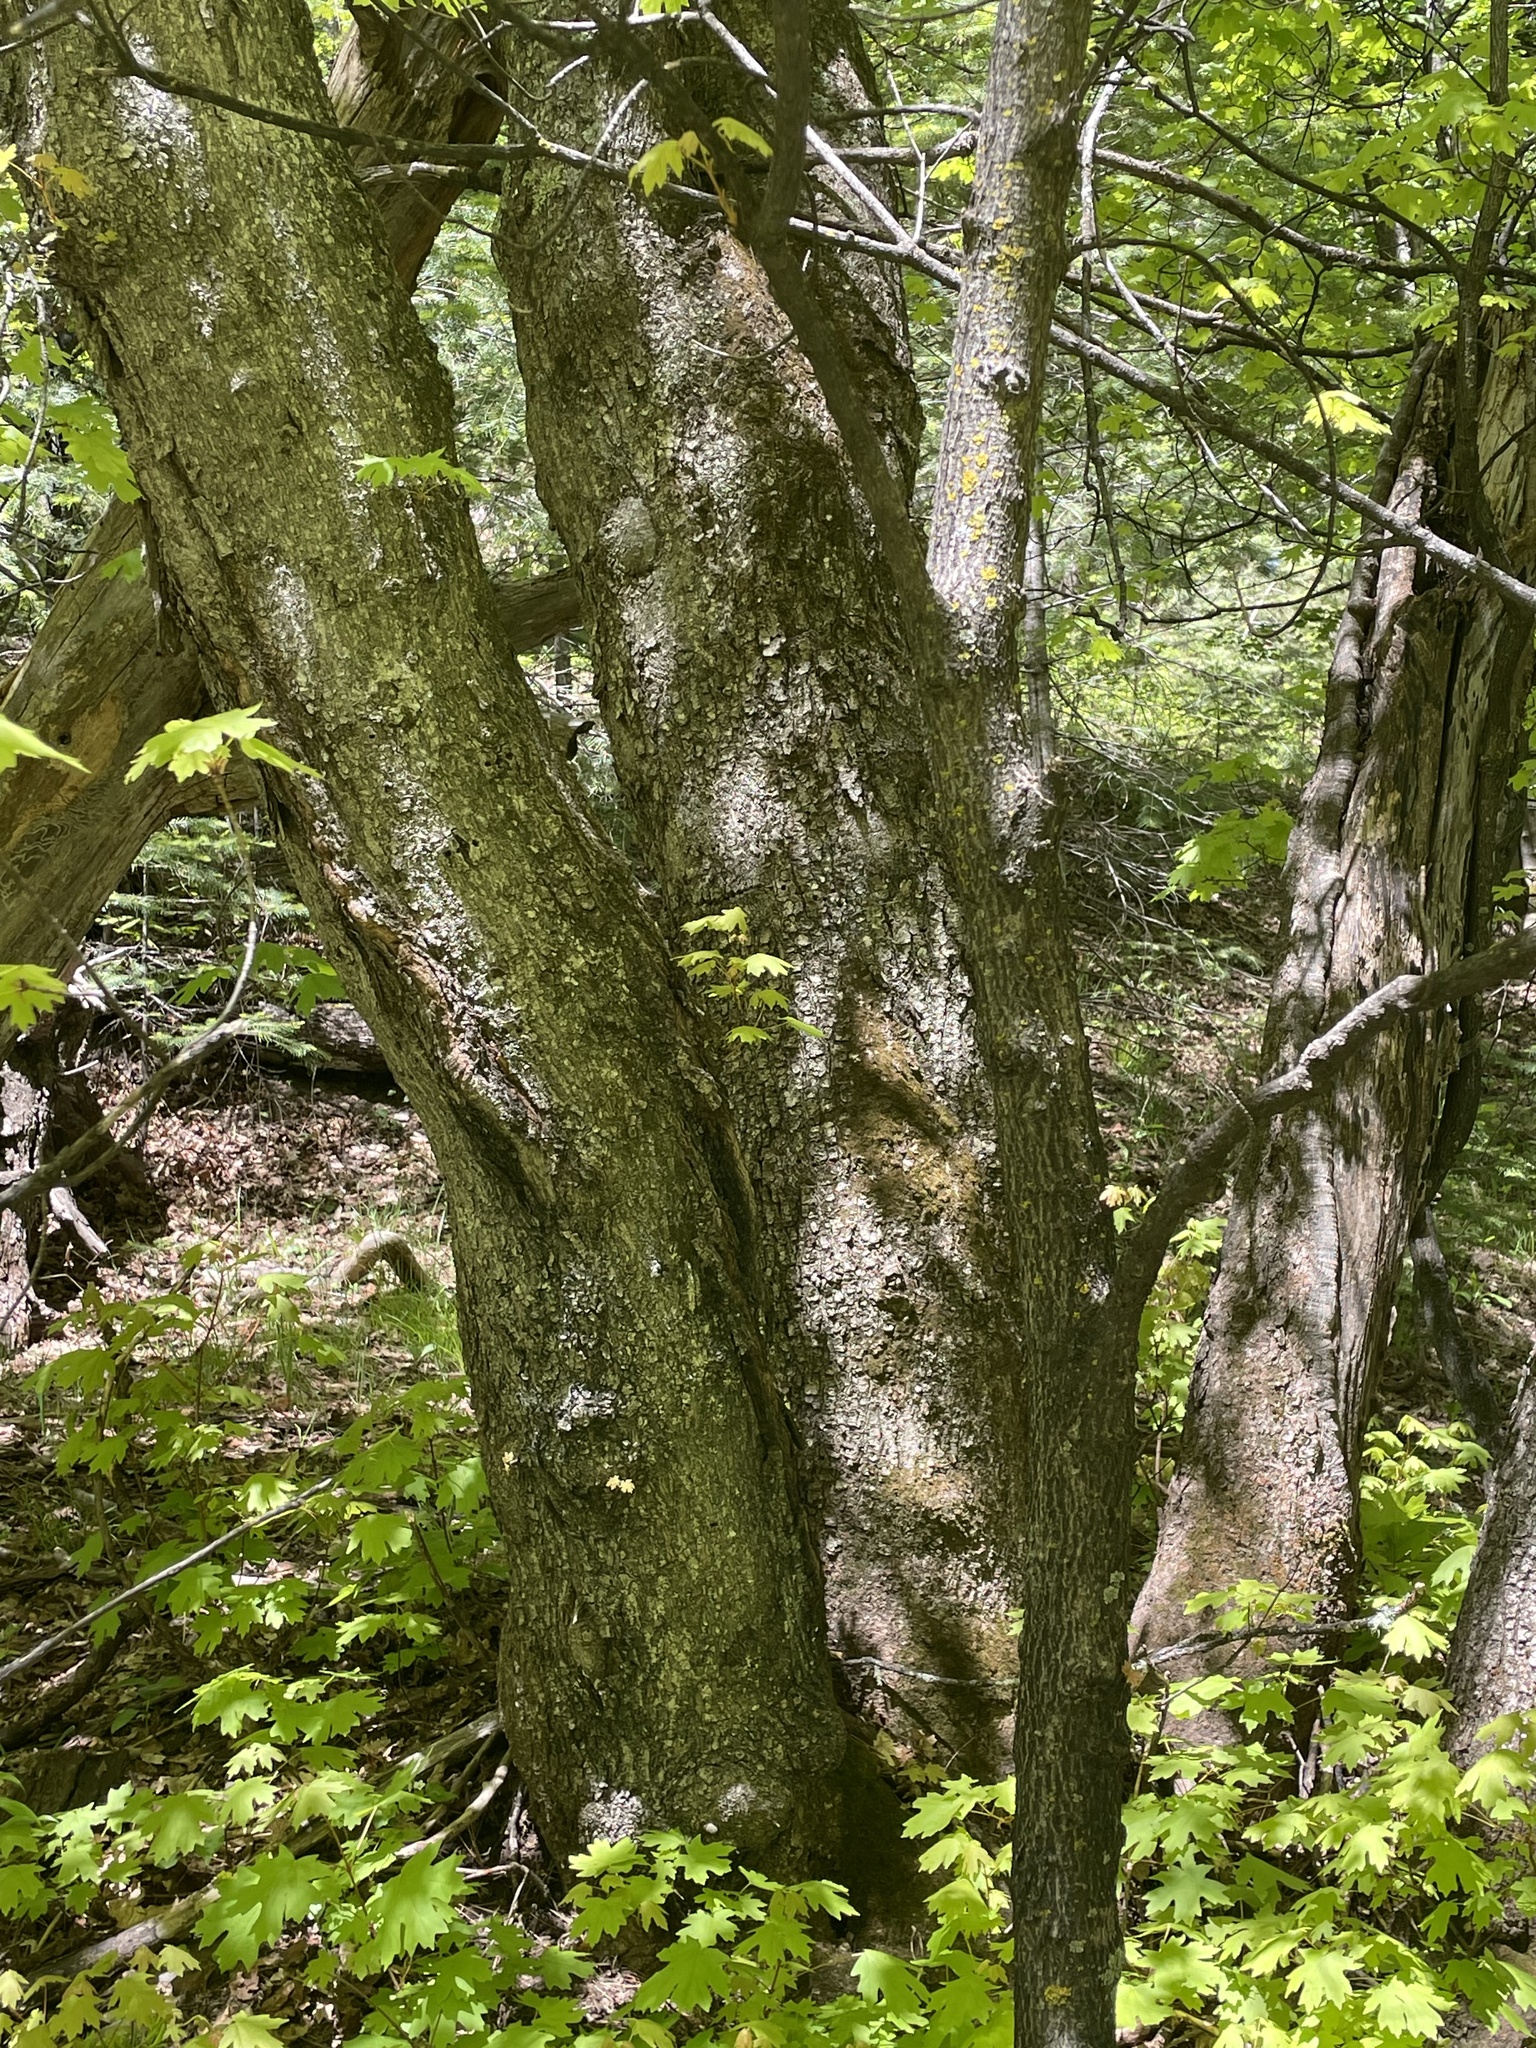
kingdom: Plantae
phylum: Tracheophyta
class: Magnoliopsida
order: Sapindales
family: Sapindaceae
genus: Acer
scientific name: Acer grandidentatum
